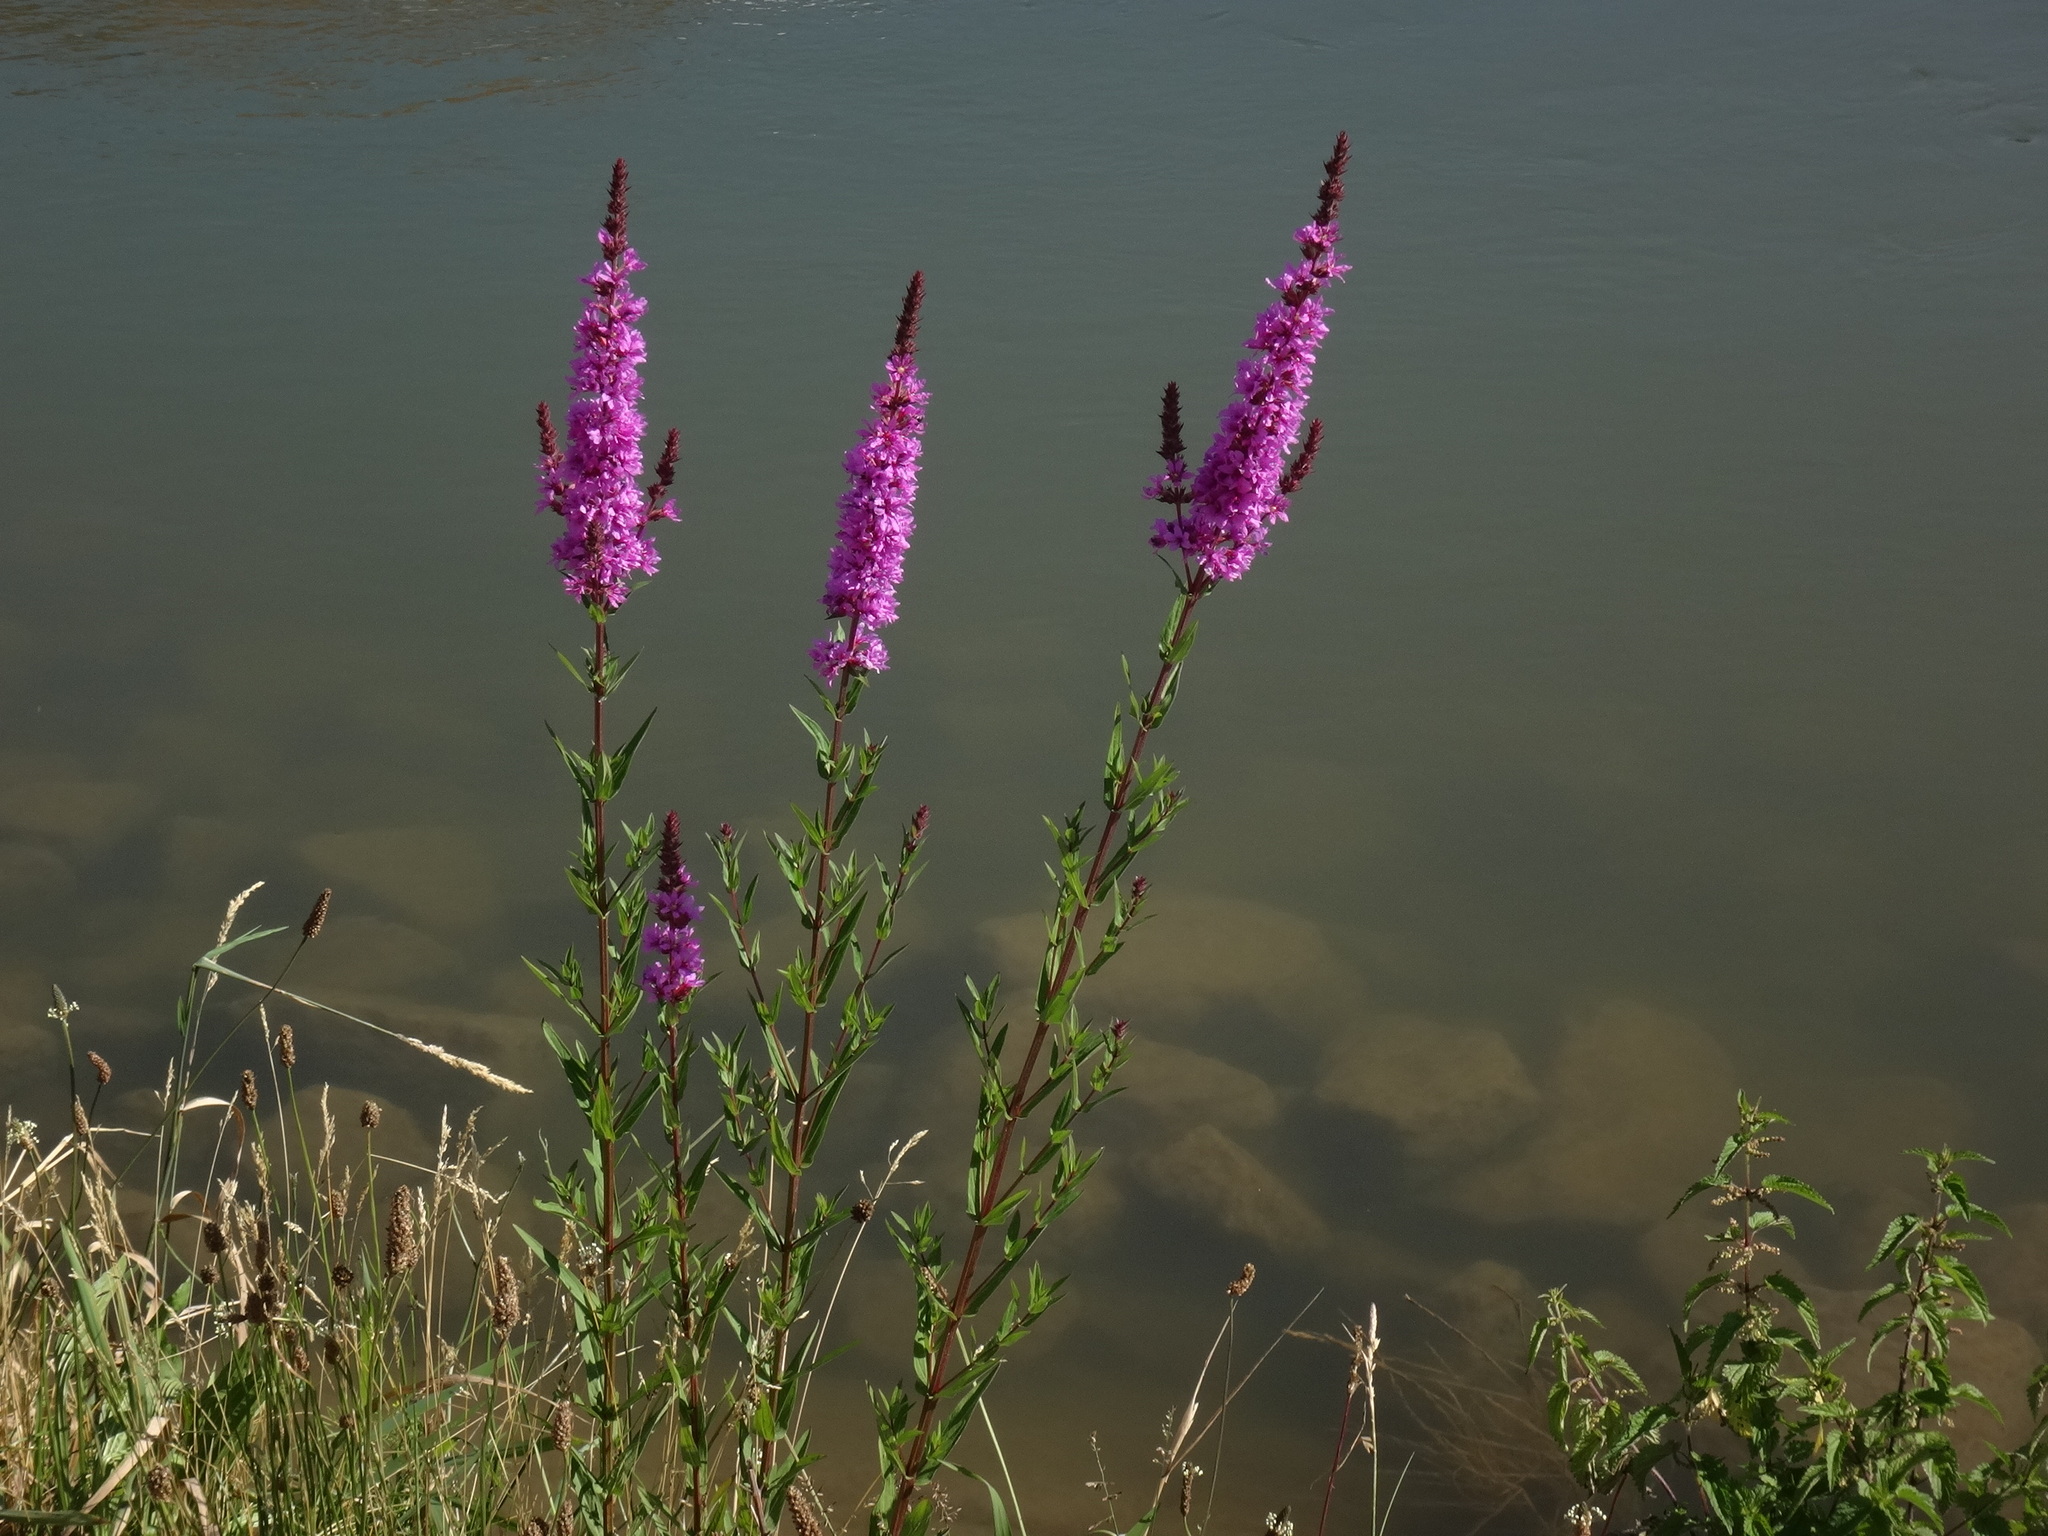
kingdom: Plantae
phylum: Tracheophyta
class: Magnoliopsida
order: Myrtales
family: Lythraceae
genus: Lythrum
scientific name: Lythrum salicaria
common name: Purple loosestrife
